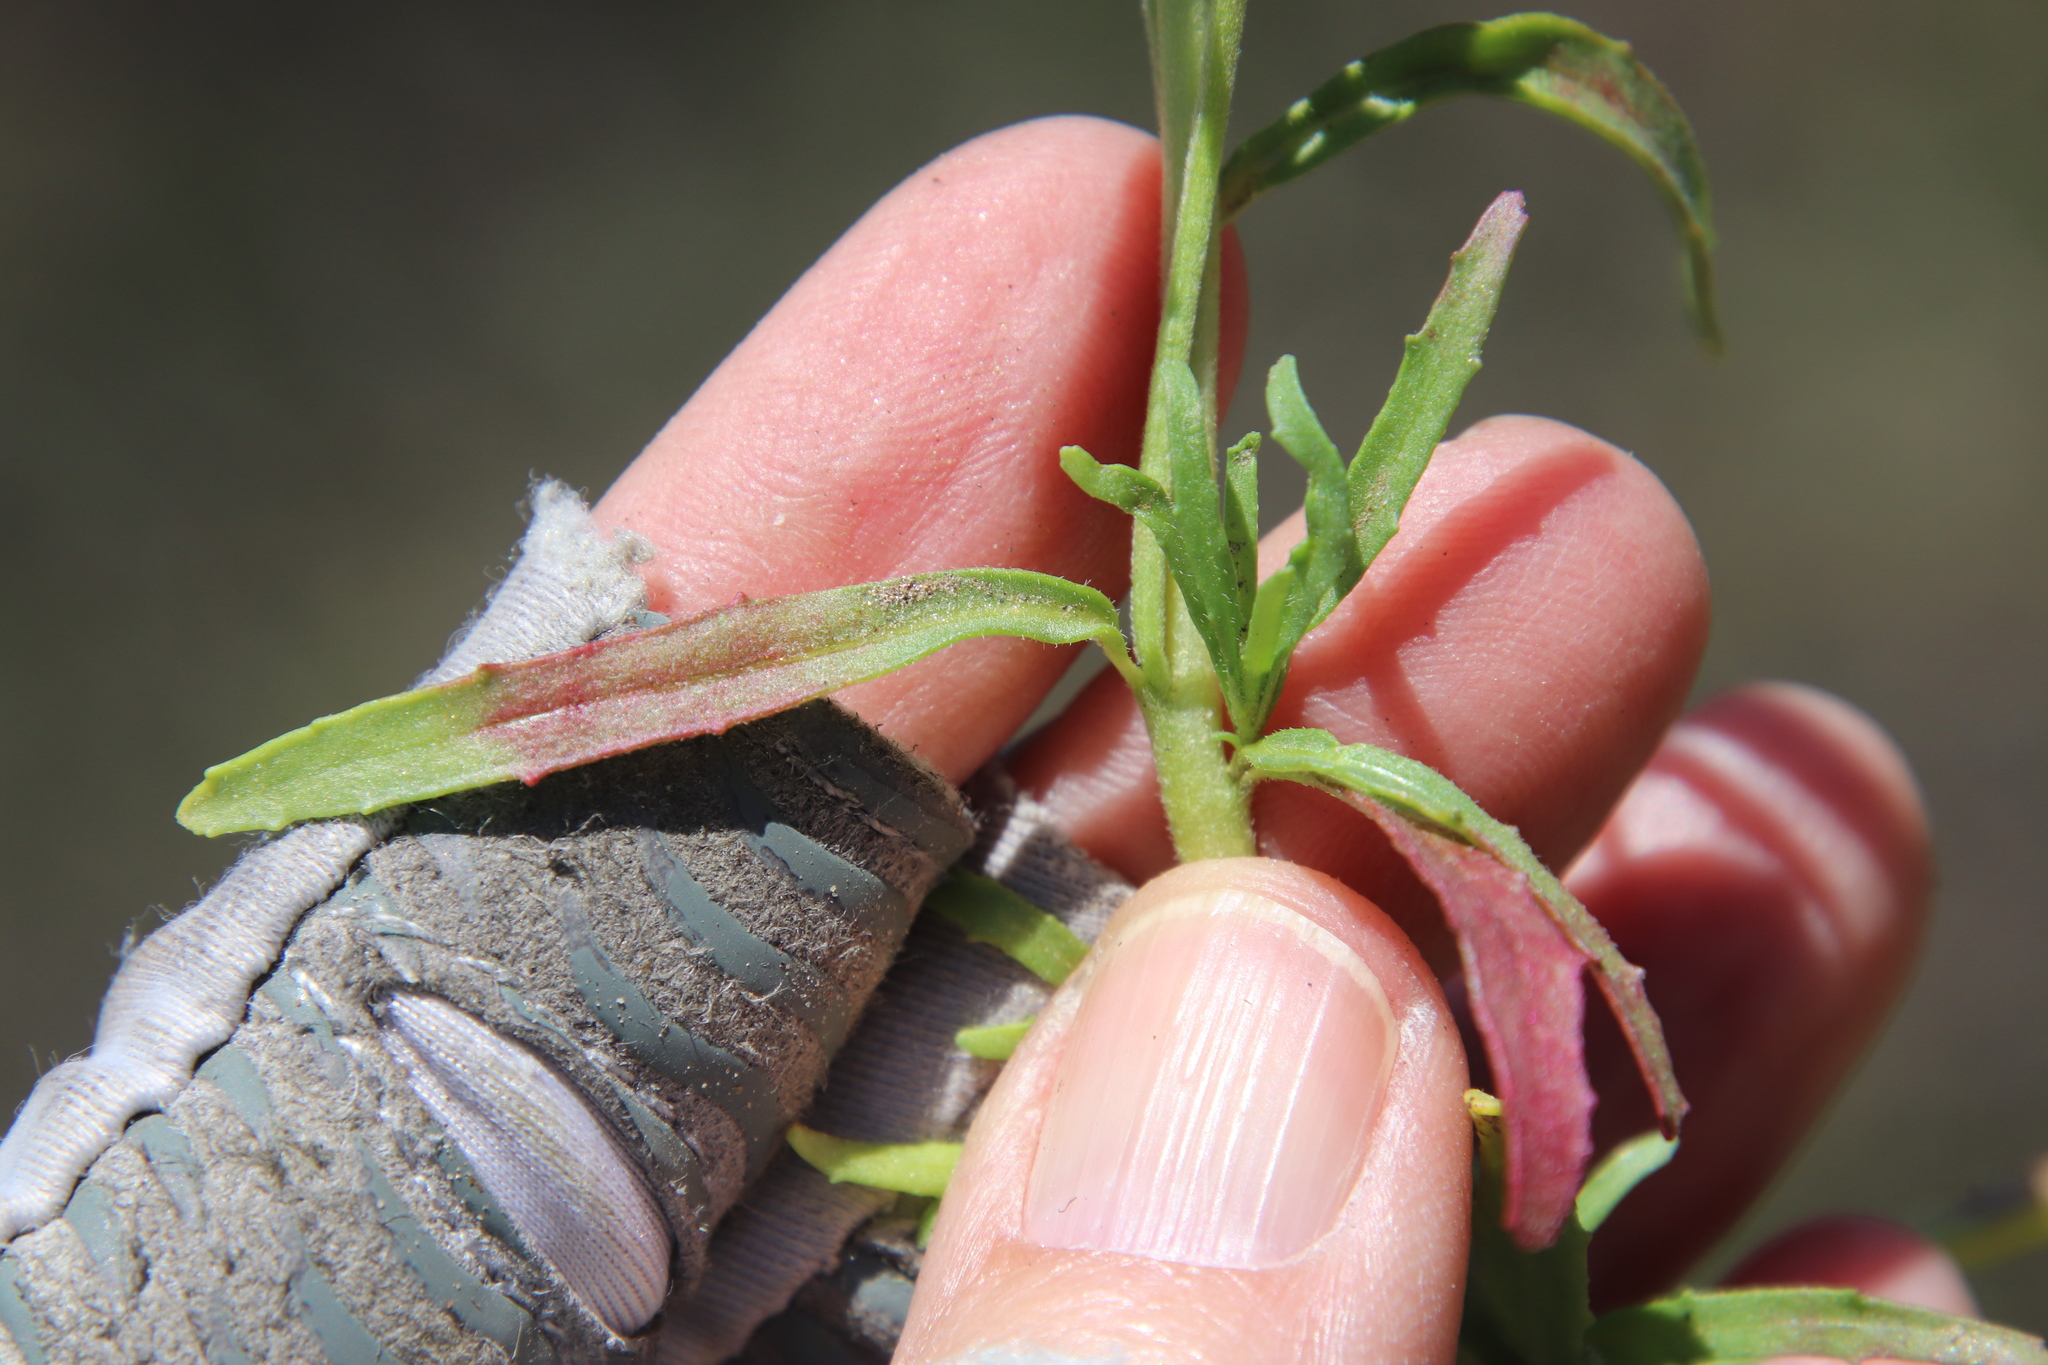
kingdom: Plantae
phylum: Tracheophyta
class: Magnoliopsida
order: Myrtales
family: Onagraceae
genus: Camissonia
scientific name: Camissonia strigulosa
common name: Contorted-primrose
